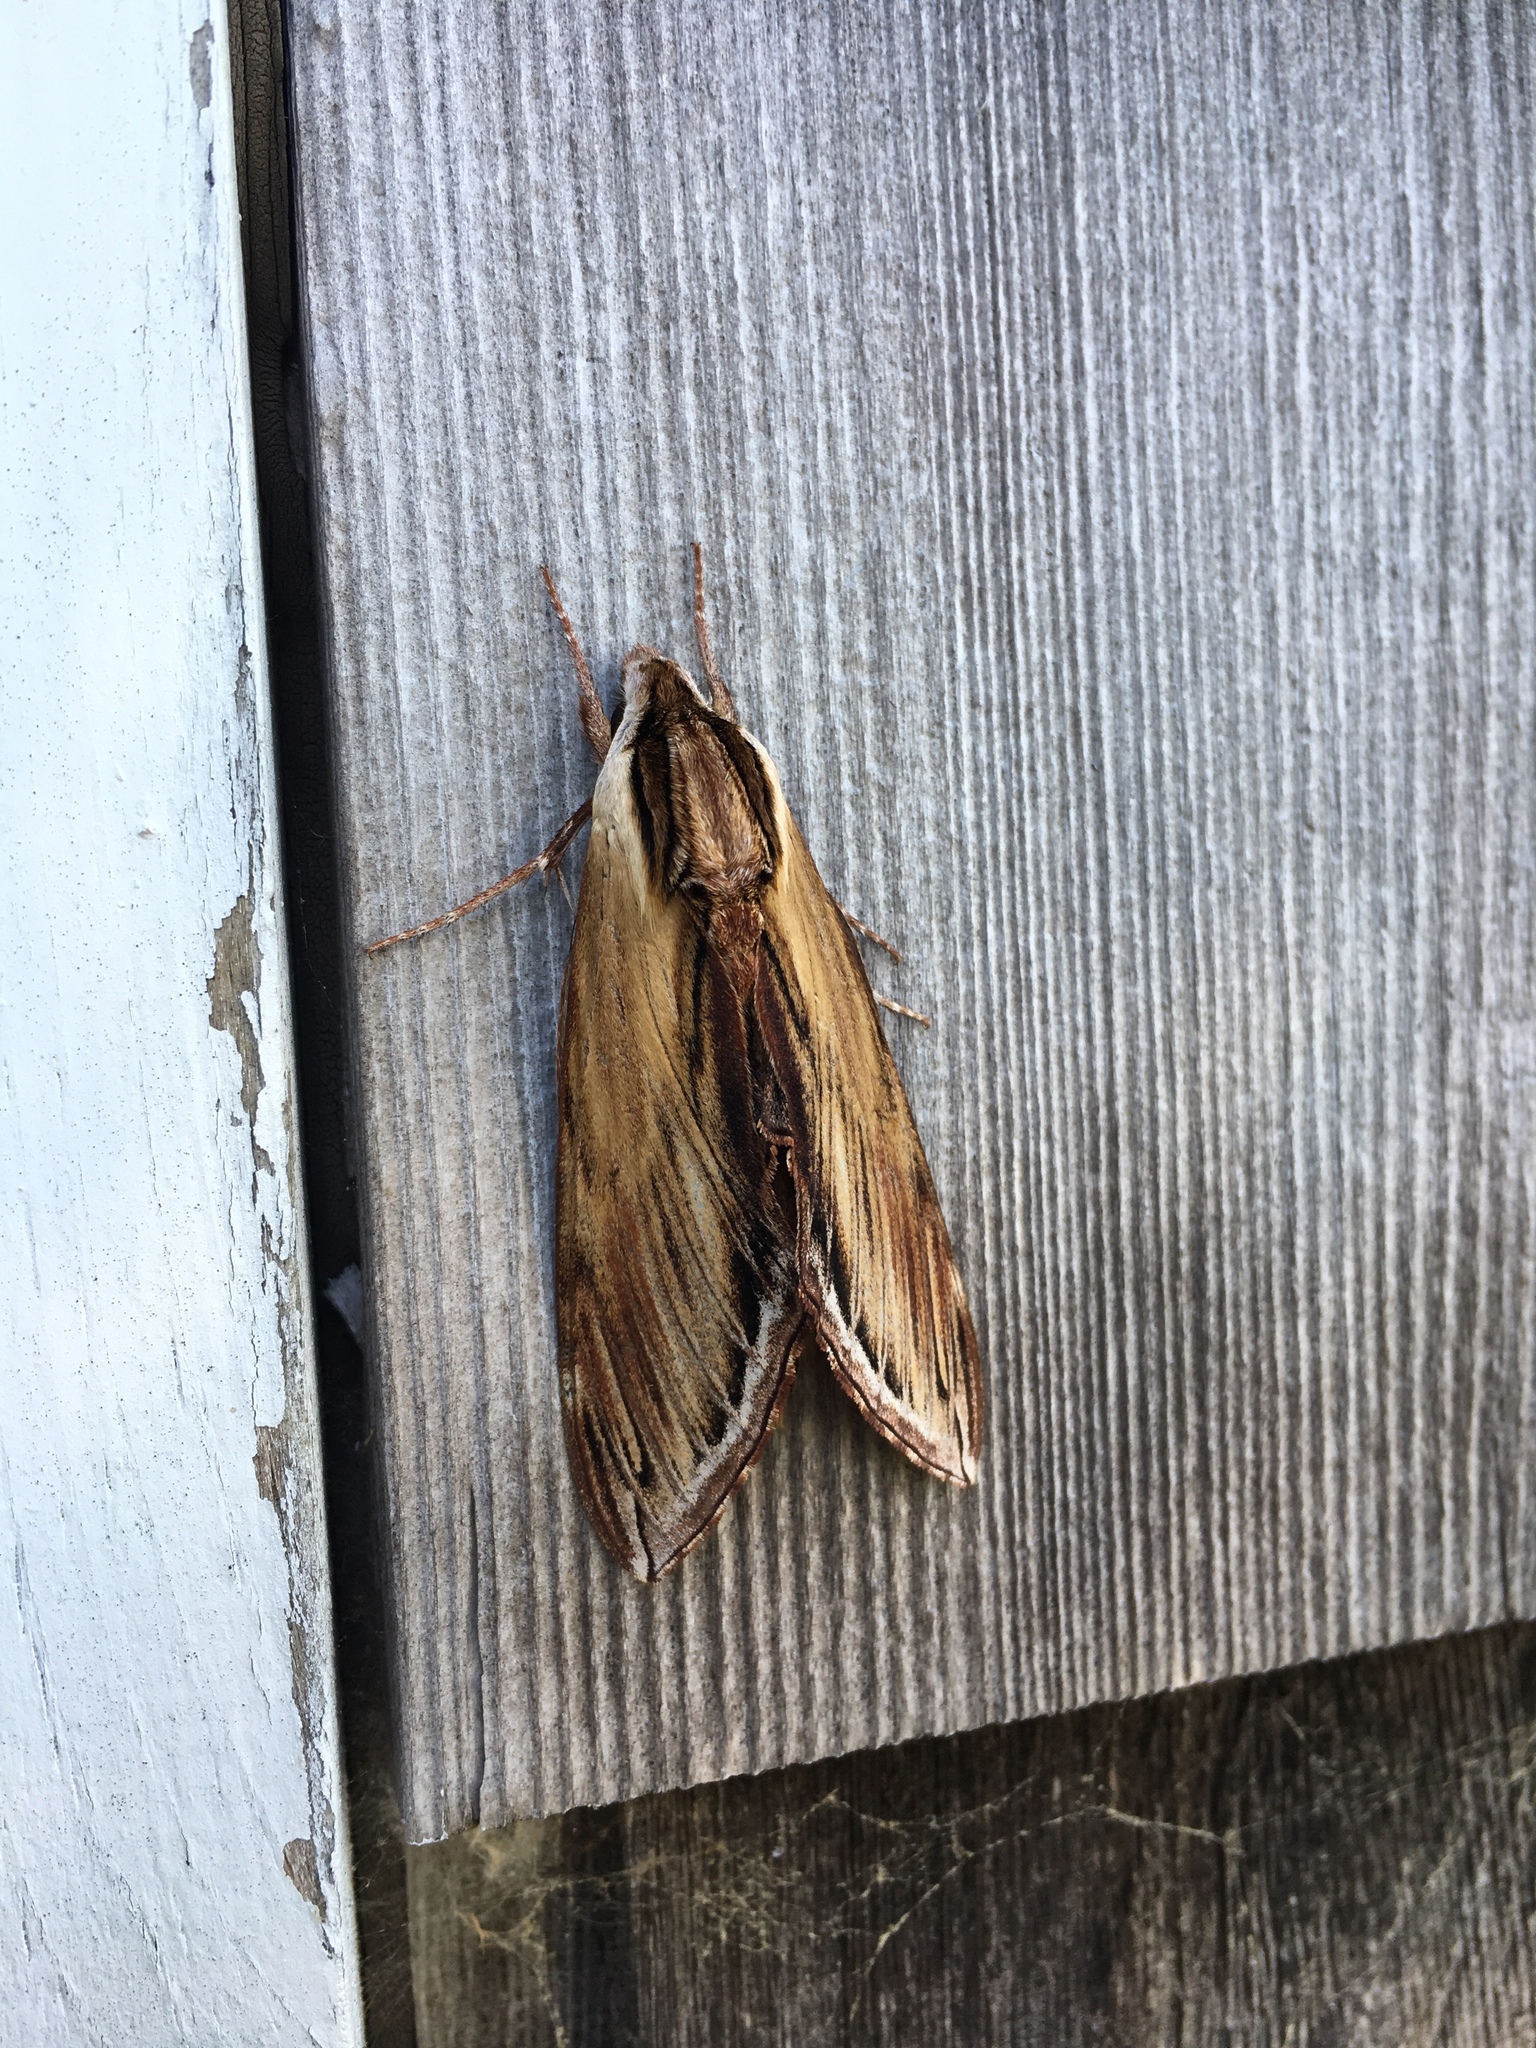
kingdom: Animalia
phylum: Arthropoda
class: Insecta
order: Lepidoptera
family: Sphingidae
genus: Sphinx
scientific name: Sphinx kalmiae
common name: Laurel sphinx
